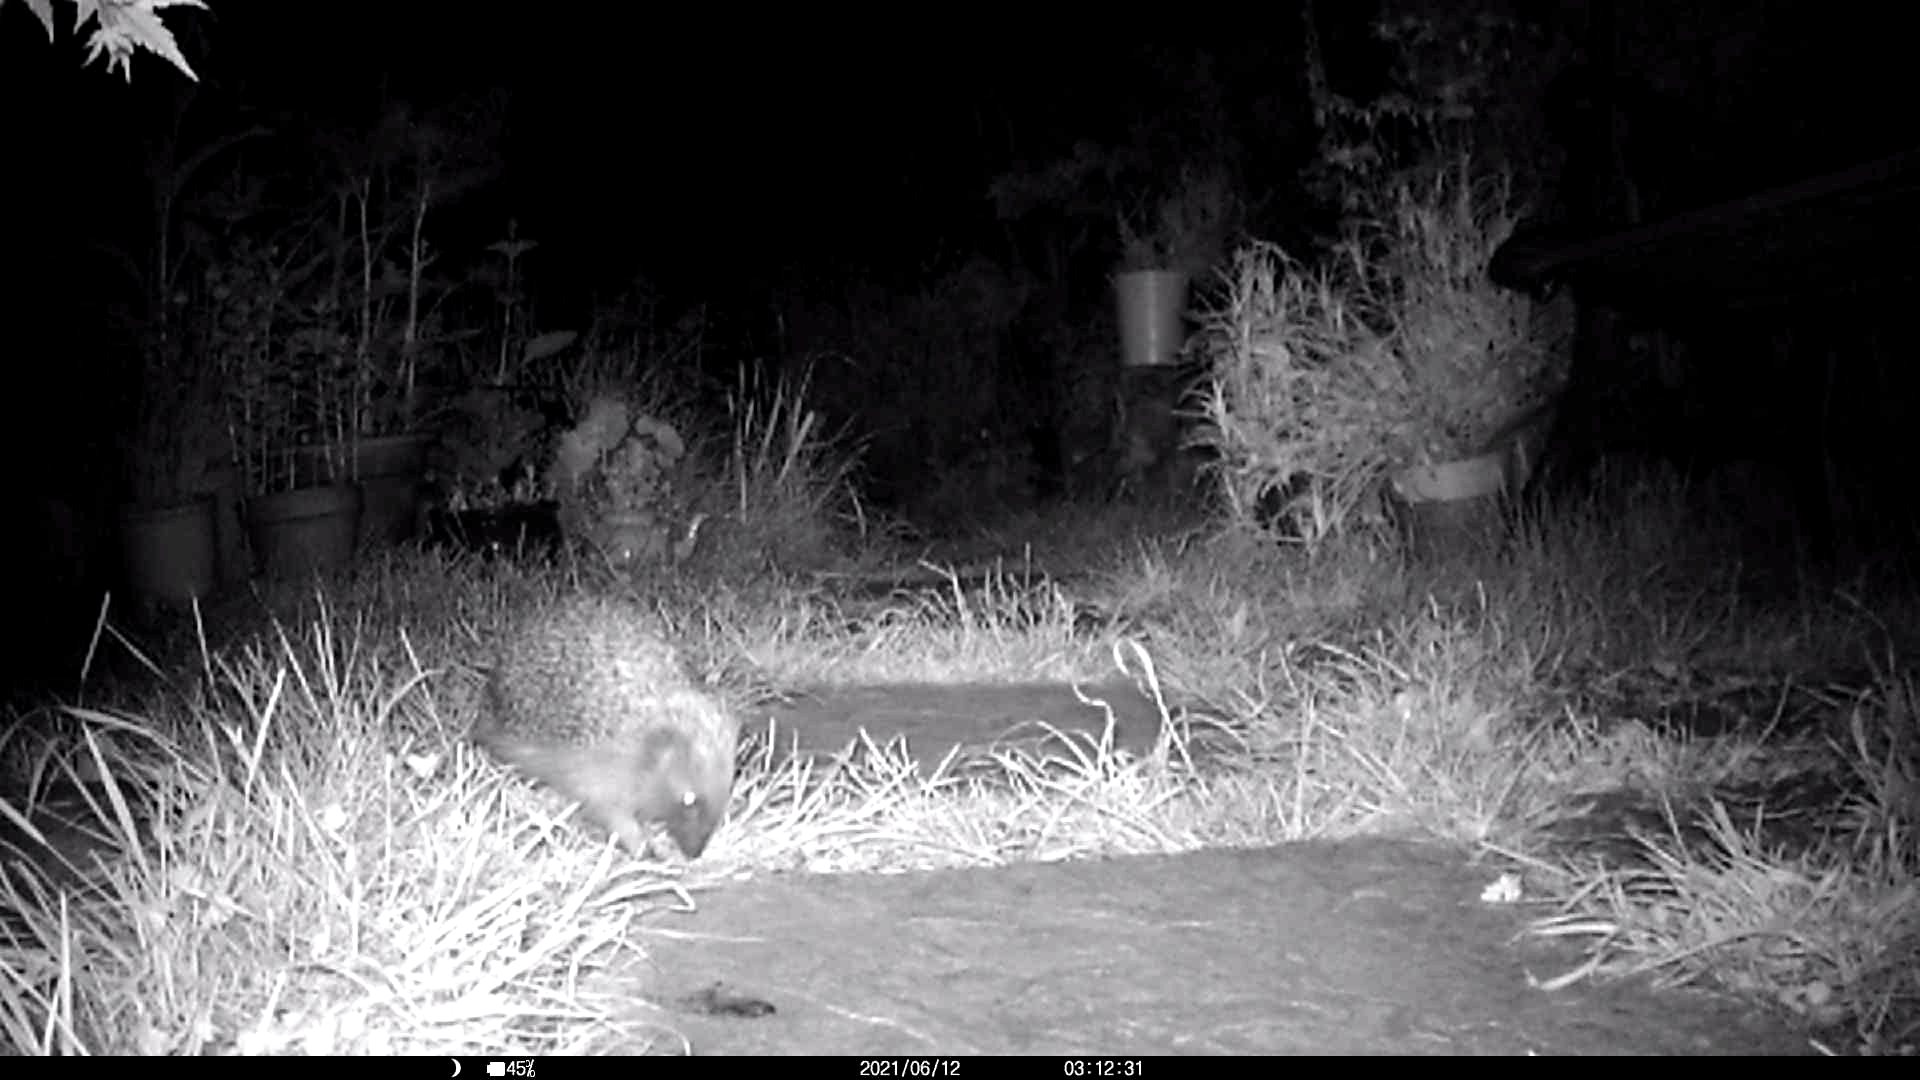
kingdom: Animalia
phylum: Chordata
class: Mammalia
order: Erinaceomorpha
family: Erinaceidae
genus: Erinaceus
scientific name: Erinaceus europaeus
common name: West european hedgehog
